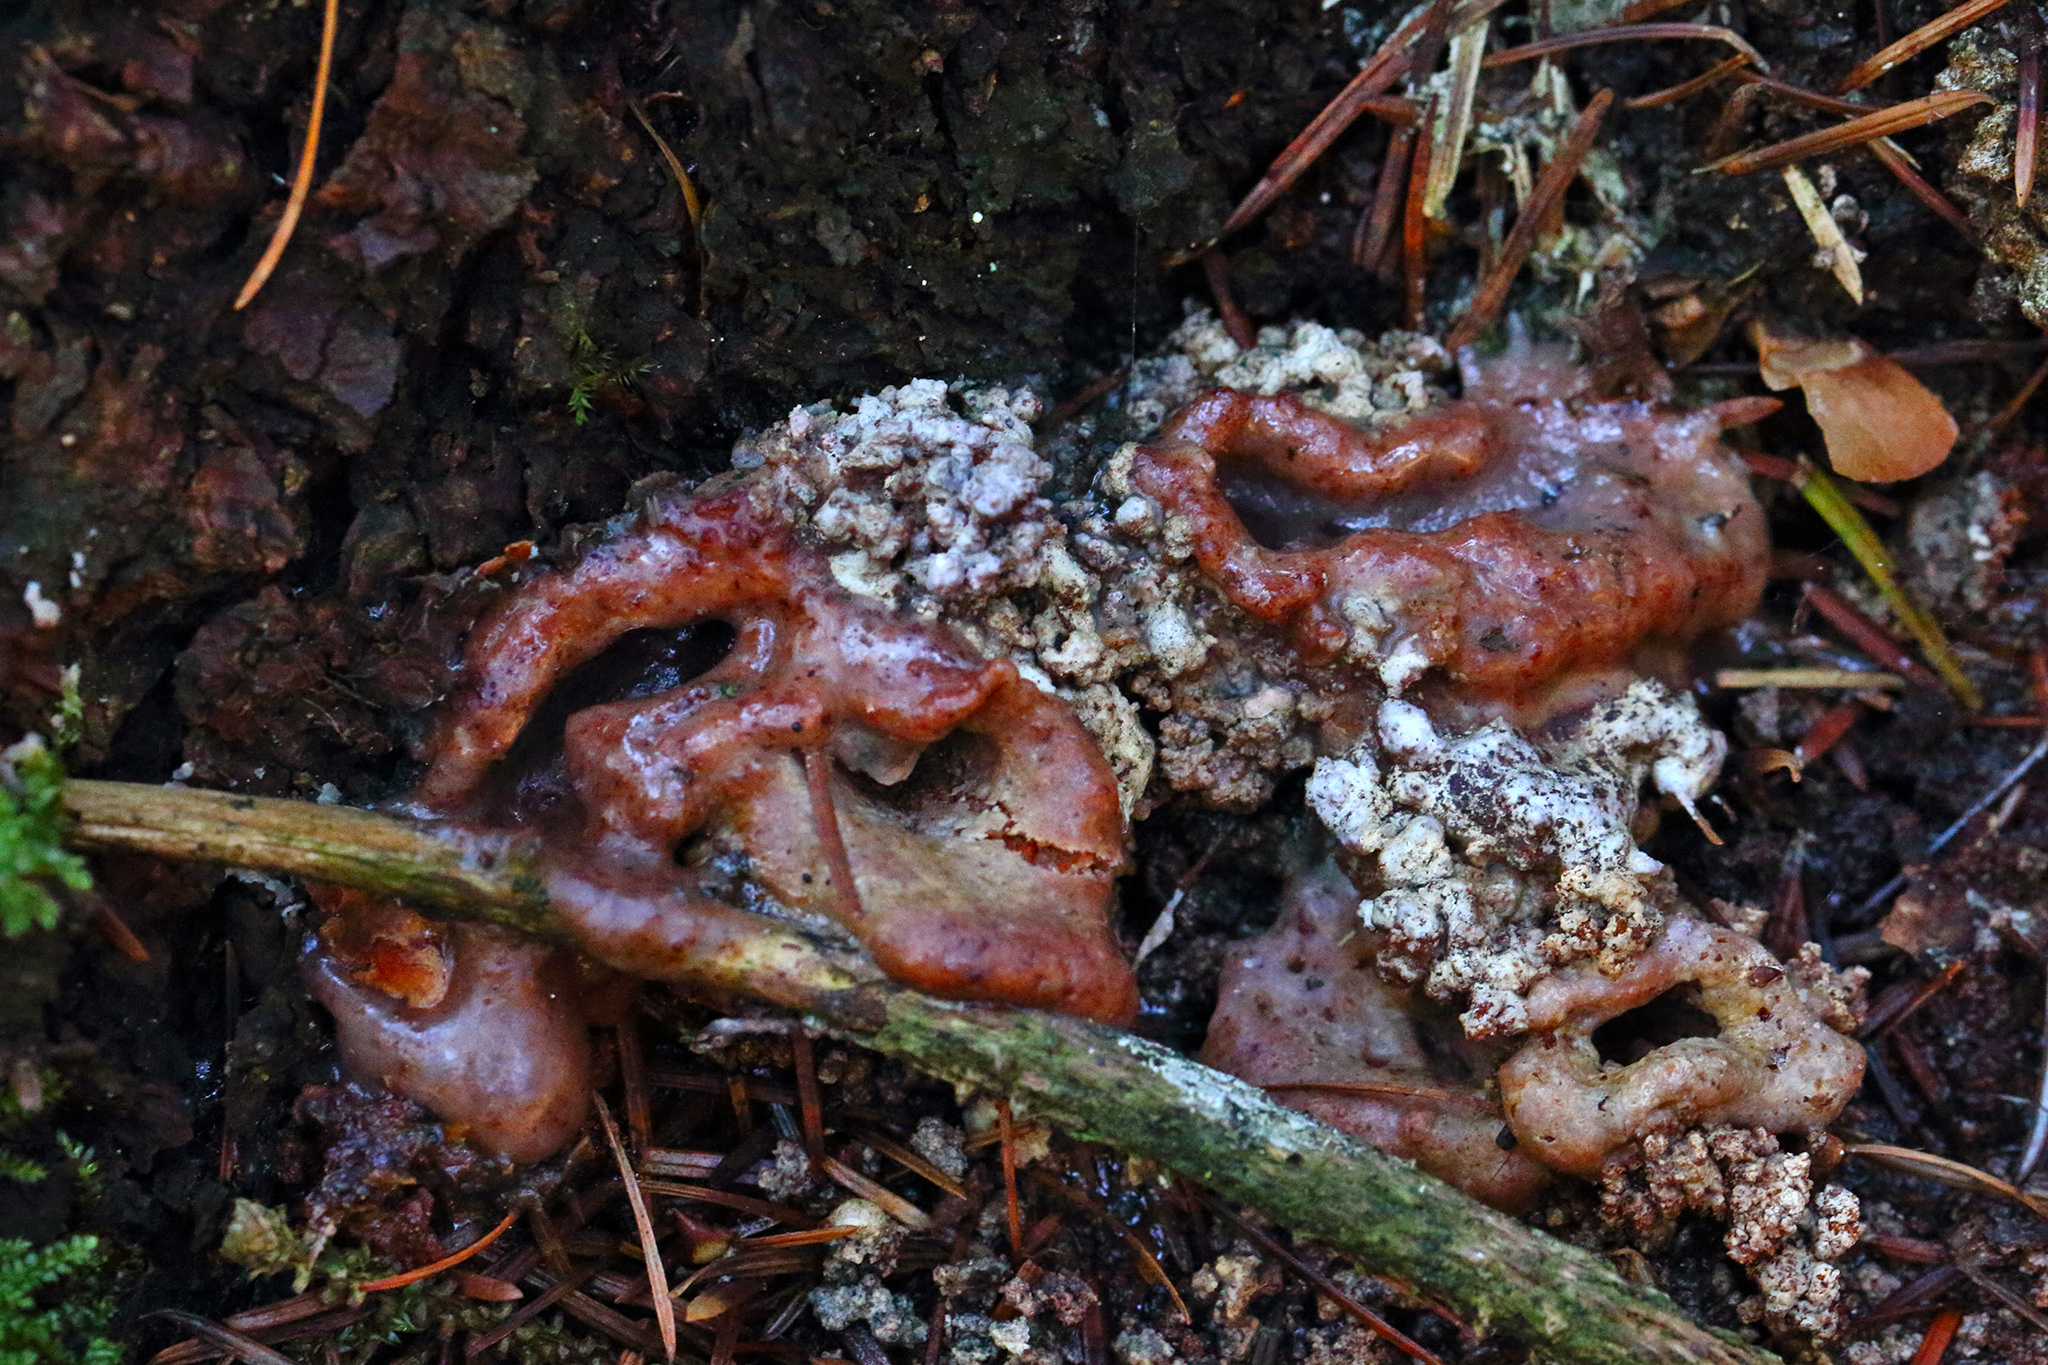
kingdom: Animalia
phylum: Arthropoda
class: Insecta
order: Coleoptera
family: Curculionidae
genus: Dendroctonus
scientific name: Dendroctonus micans
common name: Great spruce bark beetle
